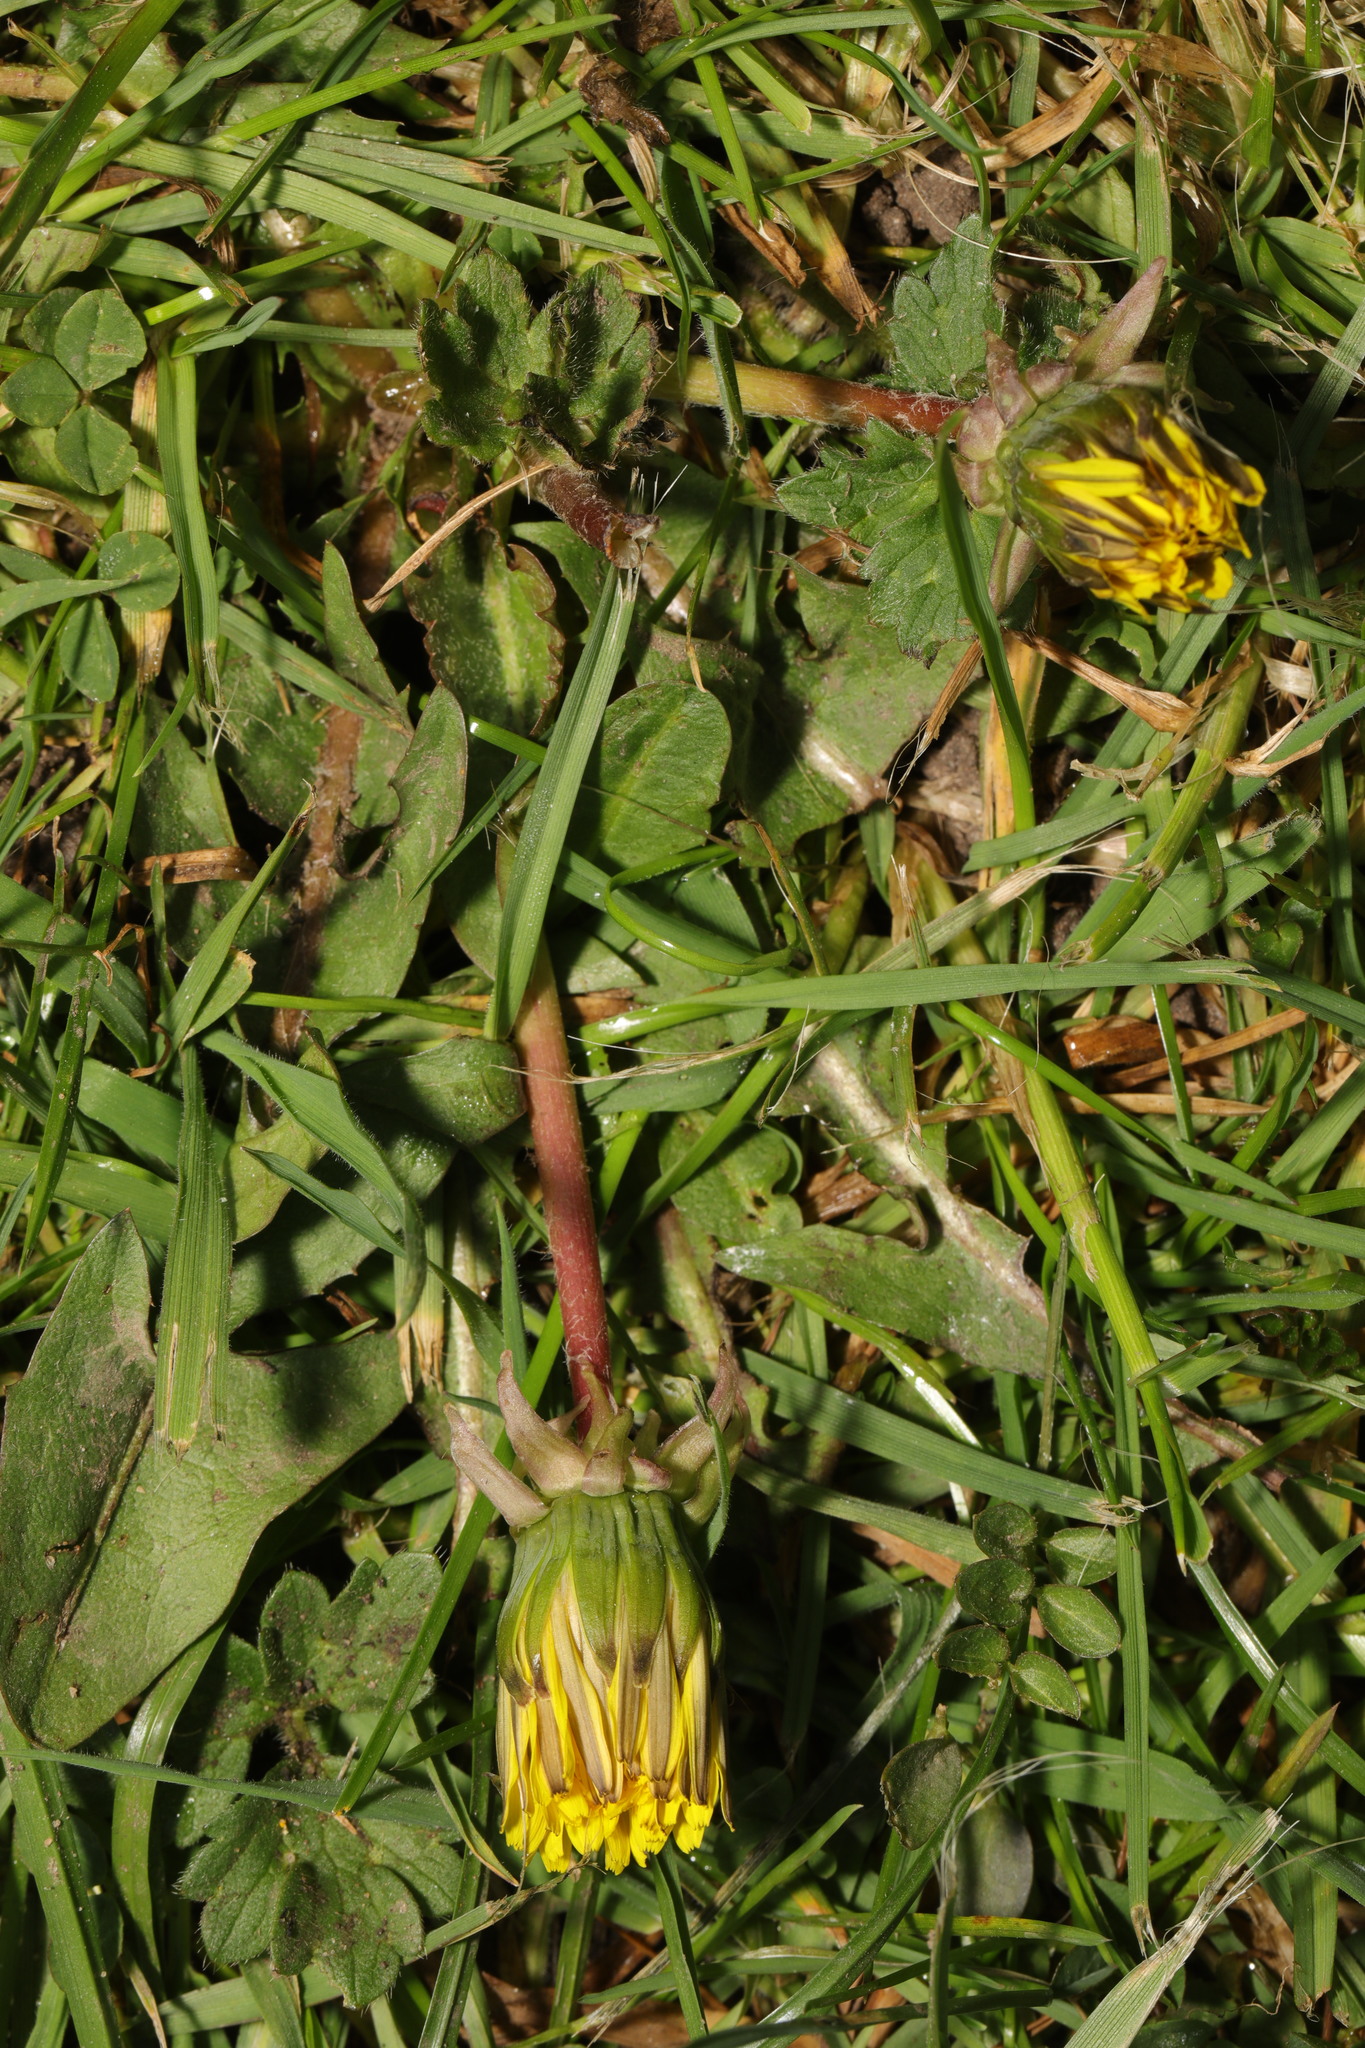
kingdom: Plantae
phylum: Tracheophyta
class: Magnoliopsida
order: Asterales
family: Asteraceae
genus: Taraxacum
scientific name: Taraxacum officinale
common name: Common dandelion
